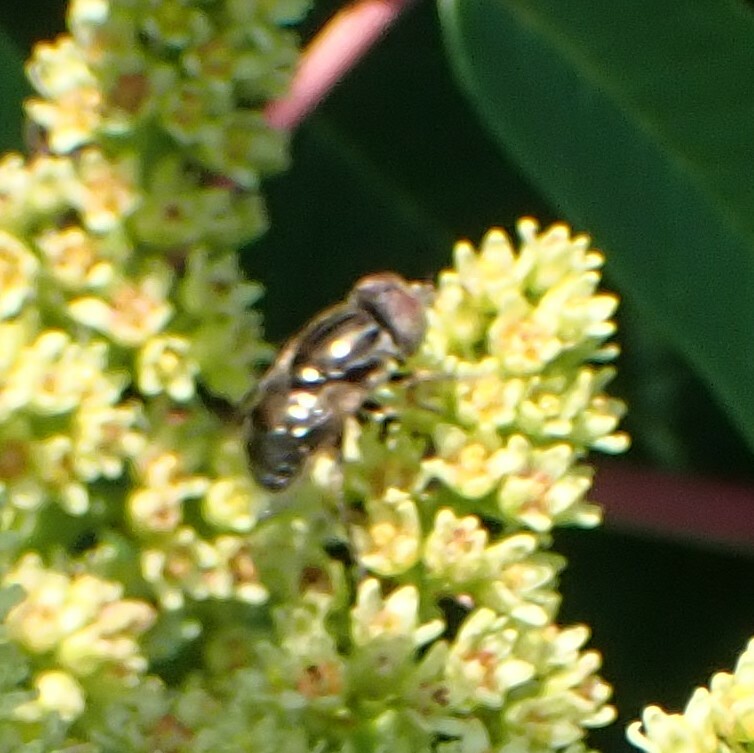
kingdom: Animalia
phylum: Arthropoda
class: Insecta
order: Diptera
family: Syrphidae
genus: Eristalinus
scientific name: Eristalinus aeneus
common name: Syrphid fly
